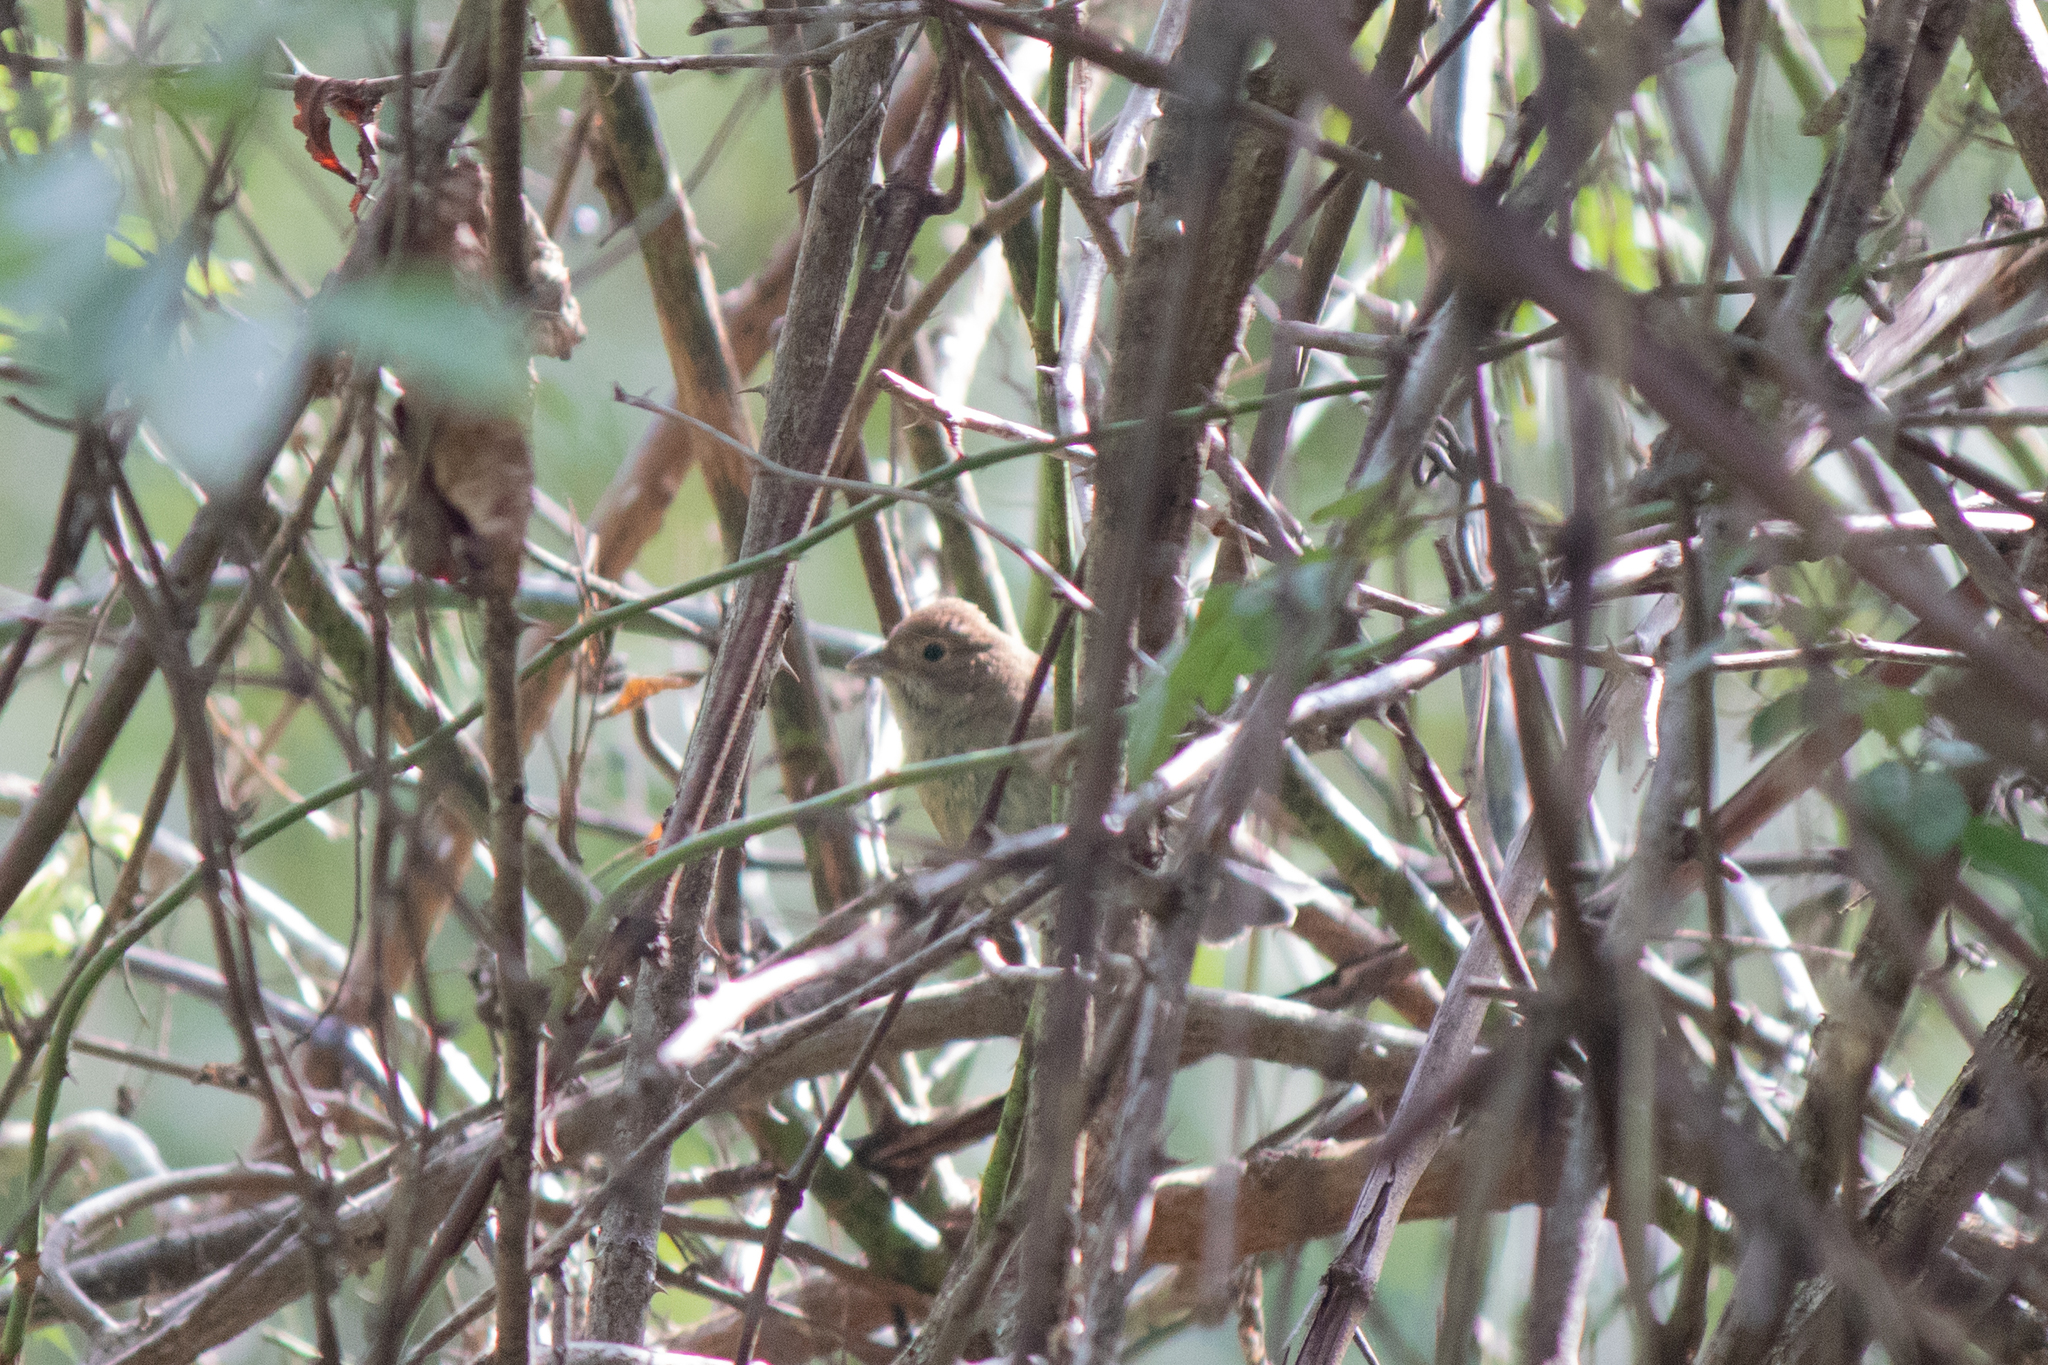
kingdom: Animalia
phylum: Chordata
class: Aves
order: Passeriformes
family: Cardinalidae
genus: Passerina
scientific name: Passerina cyanea
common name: Indigo bunting
